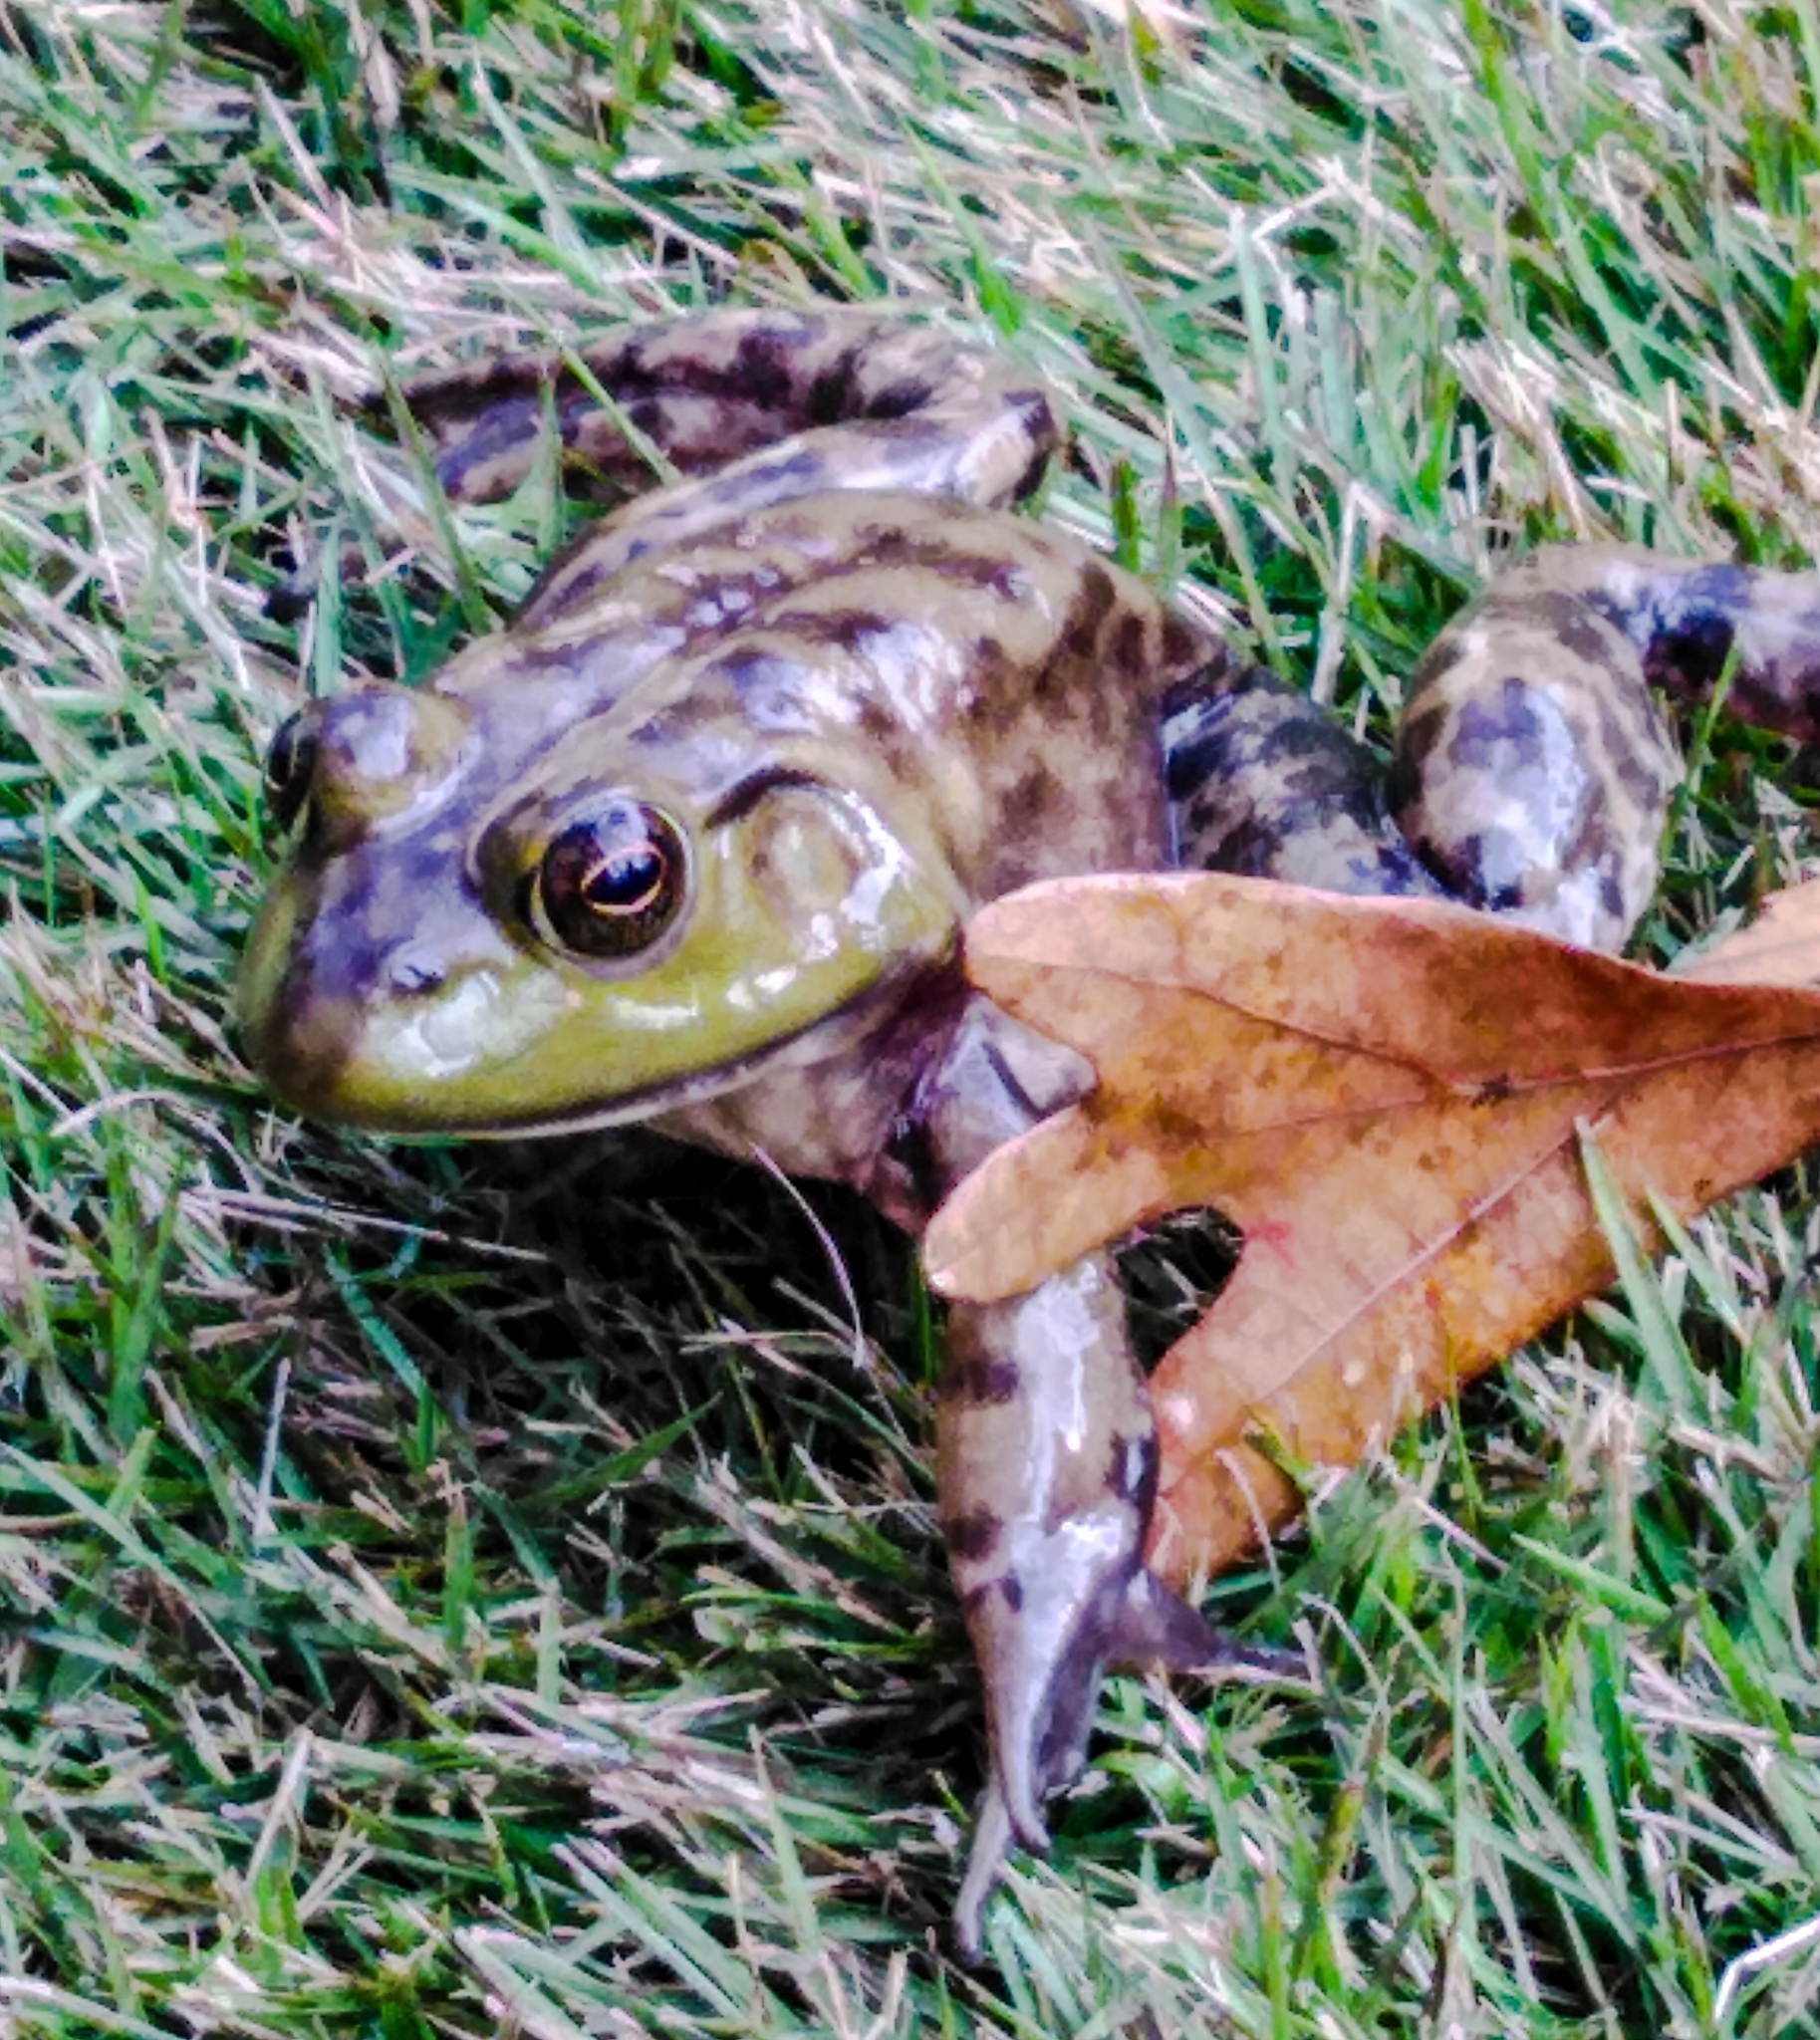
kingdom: Animalia
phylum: Chordata
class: Amphibia
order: Anura
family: Ranidae
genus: Lithobates
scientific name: Lithobates catesbeianus
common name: American bullfrog
